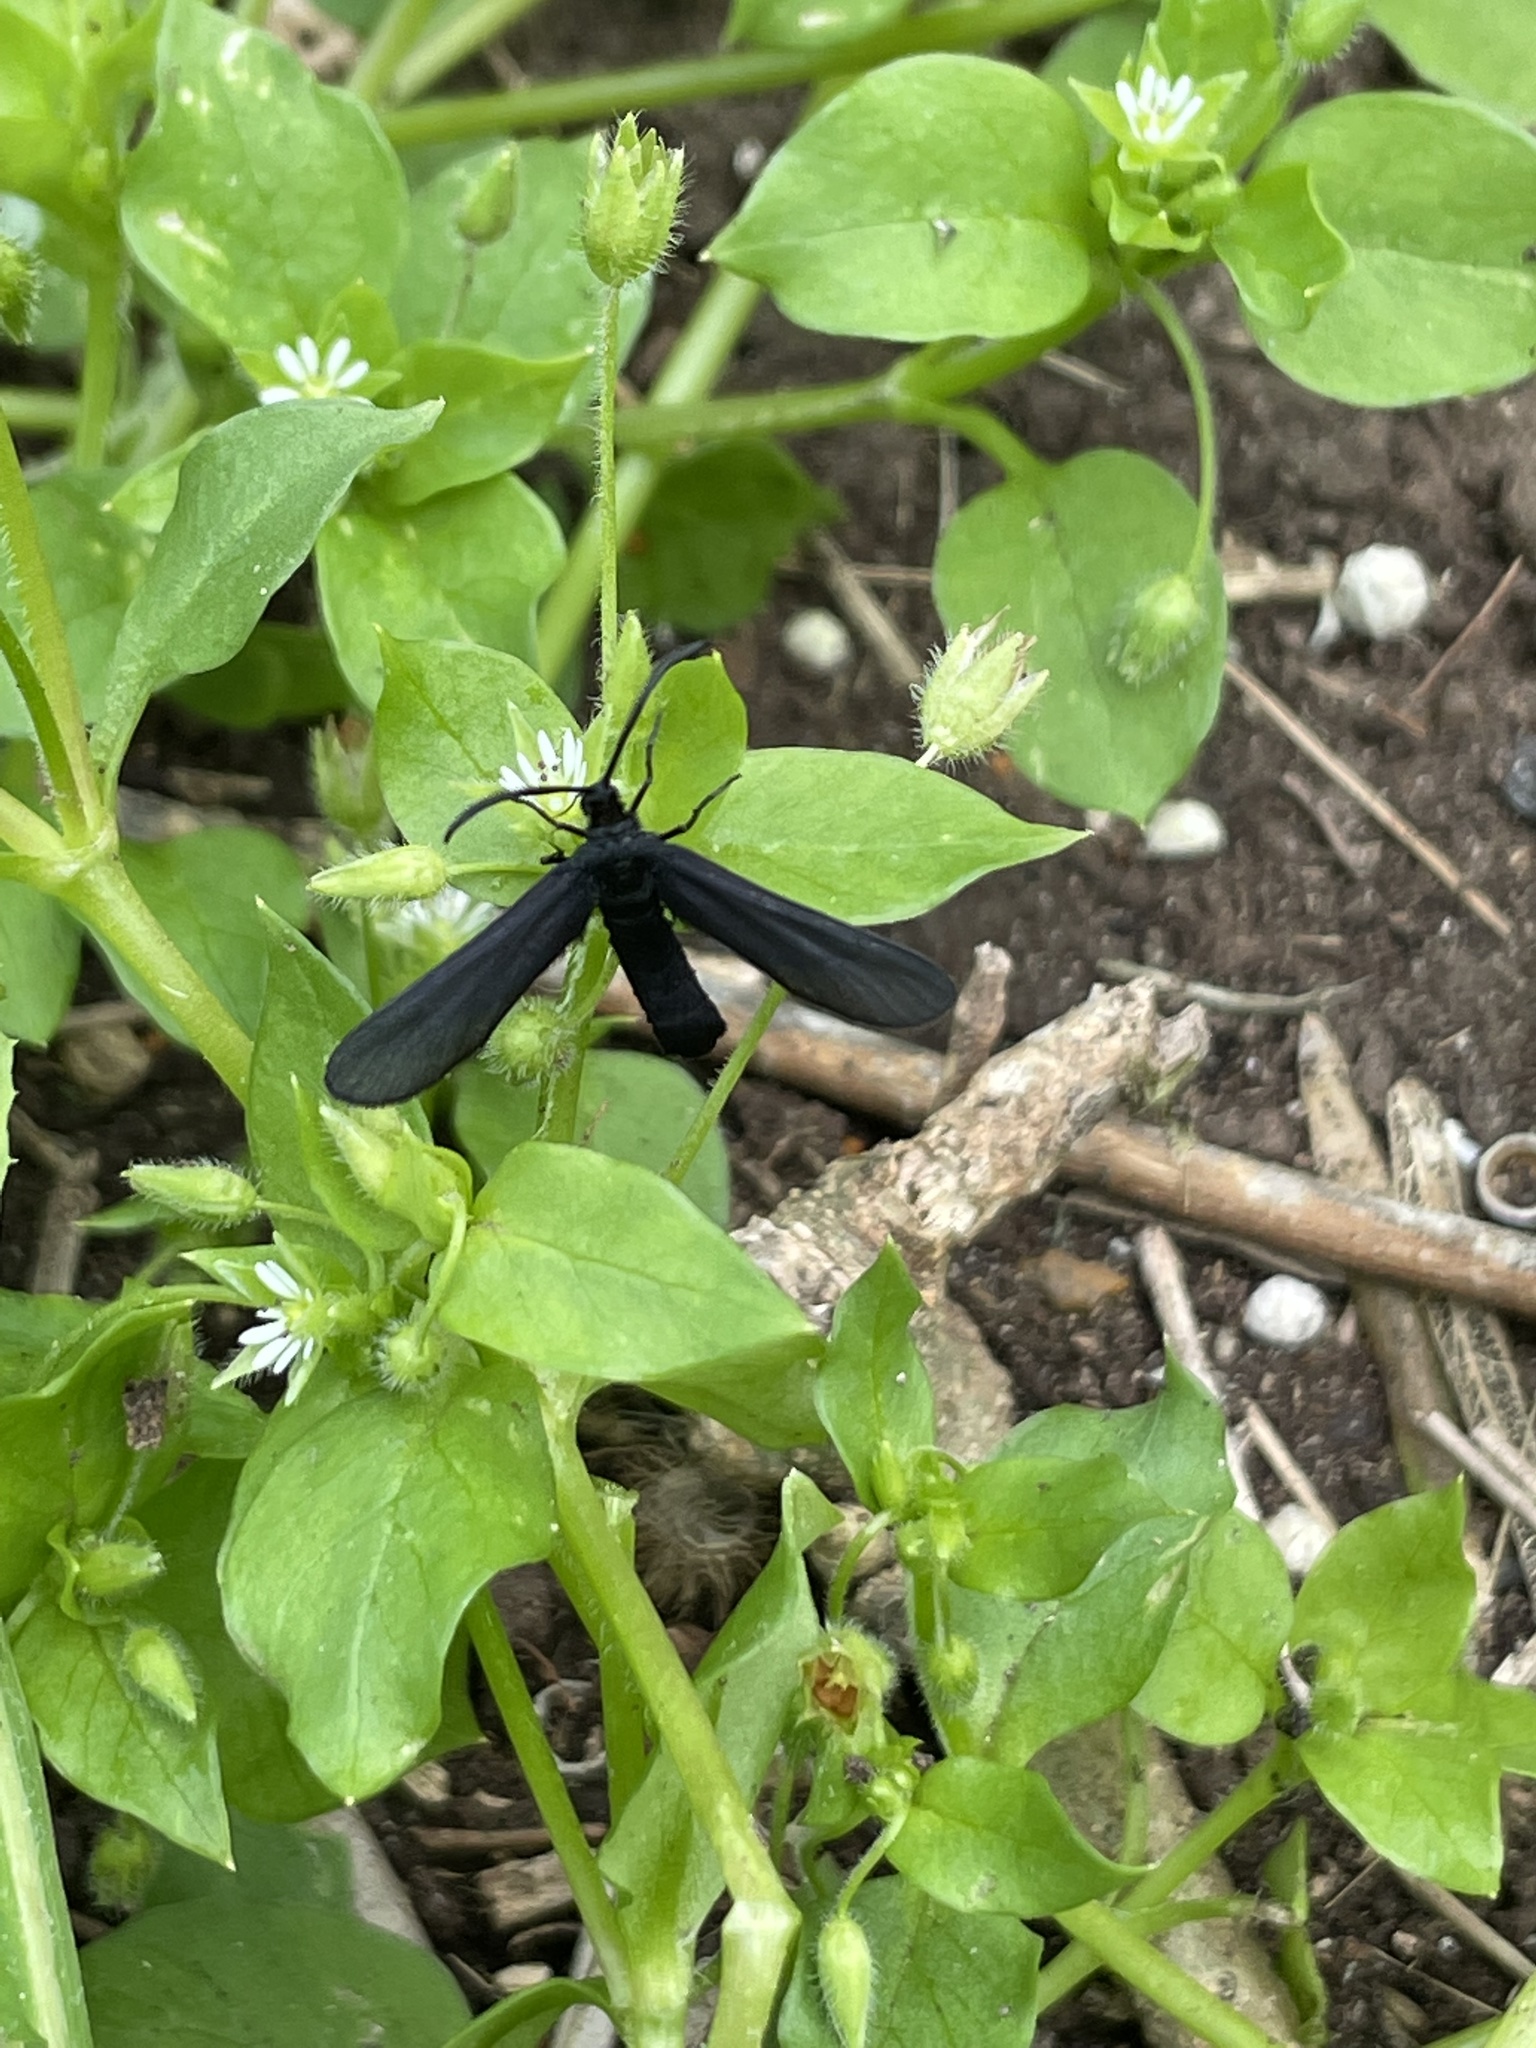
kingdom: Animalia
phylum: Arthropoda
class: Insecta
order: Lepidoptera
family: Zygaenidae
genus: Harrisina
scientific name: Harrisina coracina
